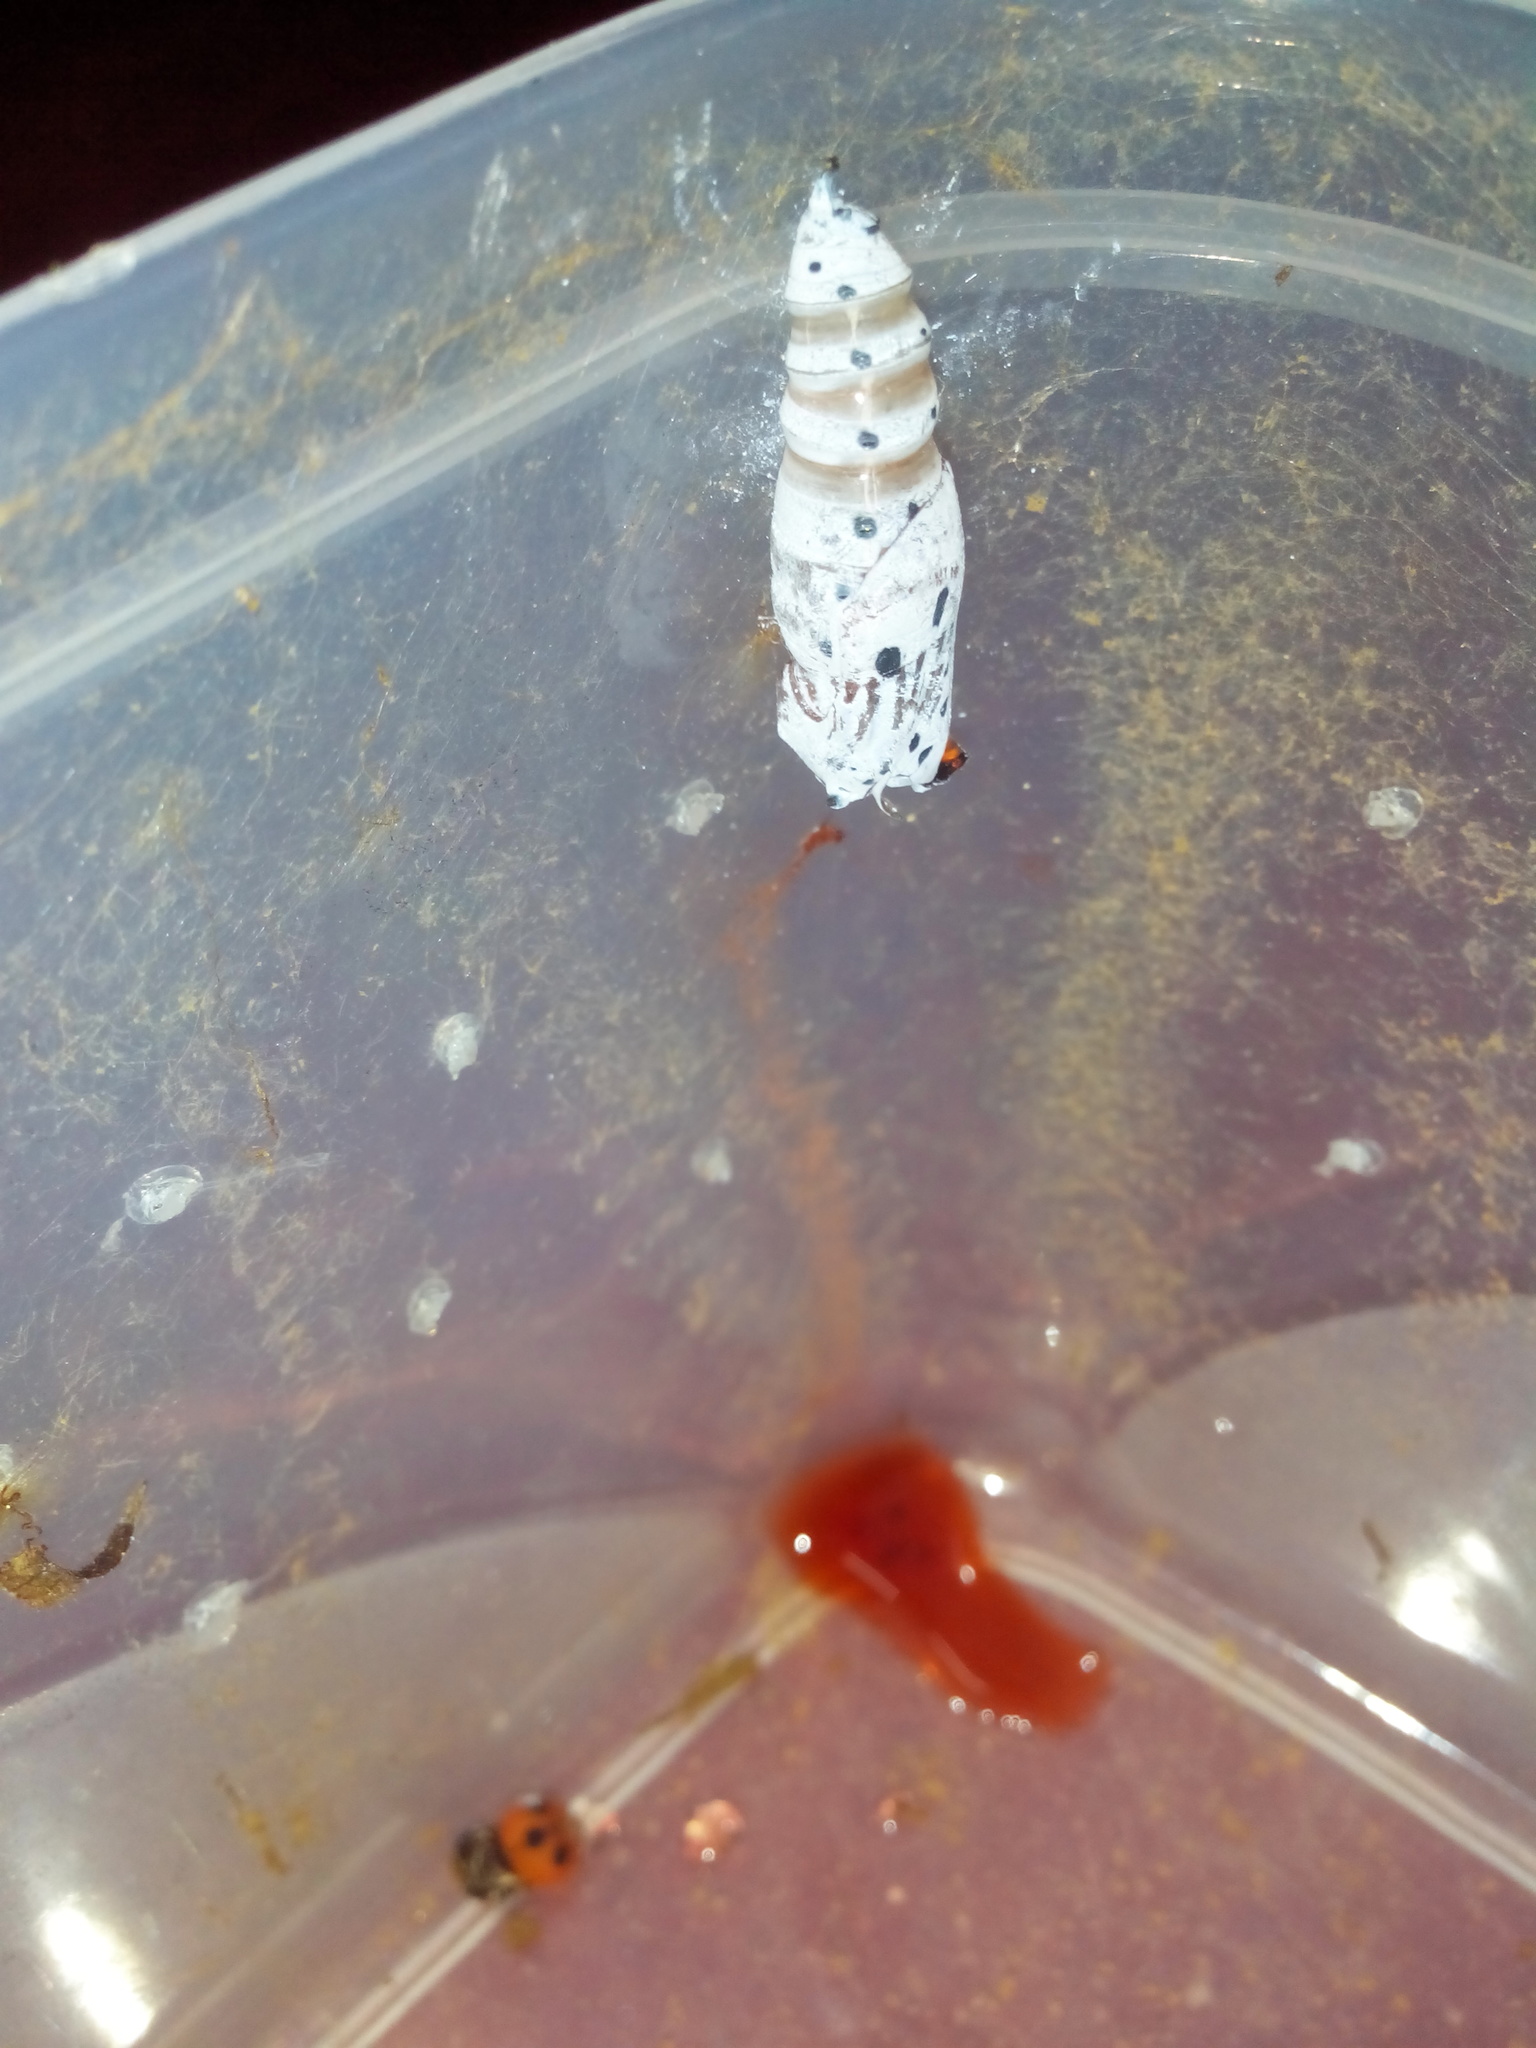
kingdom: Animalia
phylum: Arthropoda
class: Insecta
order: Lepidoptera
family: Hesperiidae
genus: Choaspes
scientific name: Choaspes benjaminii
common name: Indian awlking
